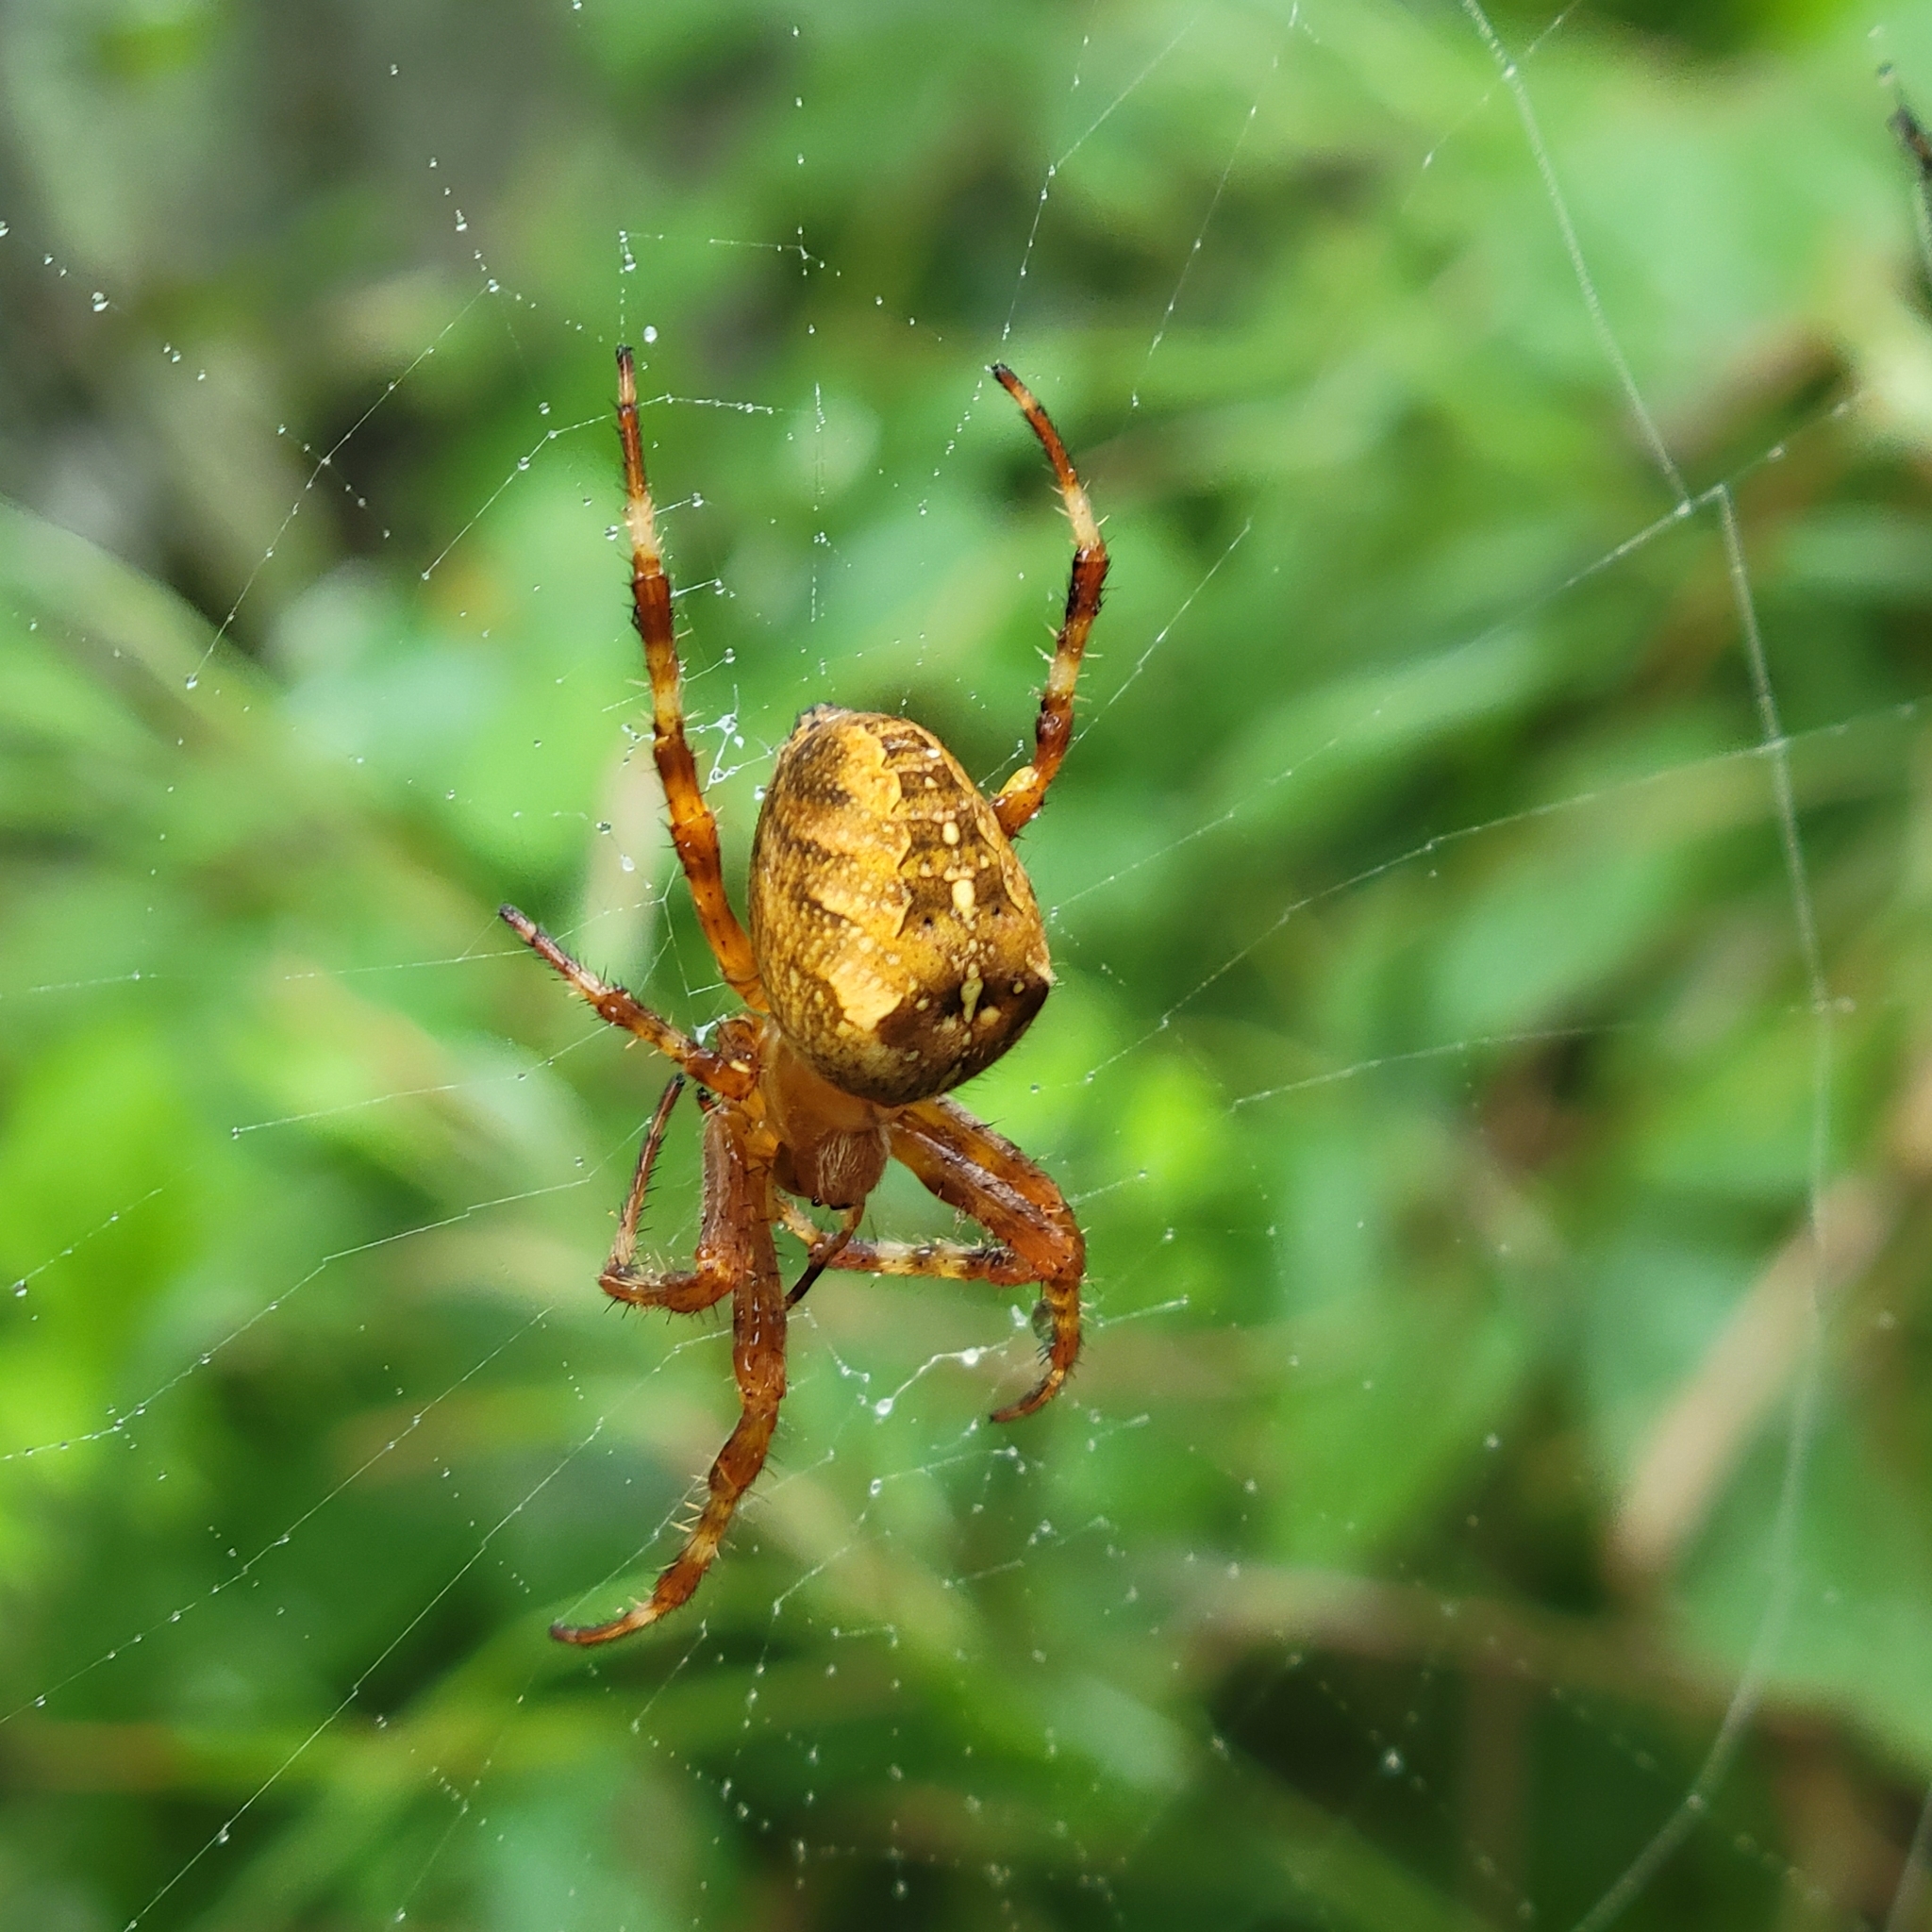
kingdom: Animalia
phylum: Arthropoda
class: Arachnida
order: Araneae
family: Araneidae
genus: Araneus
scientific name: Araneus diadematus
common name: Cross orbweaver
